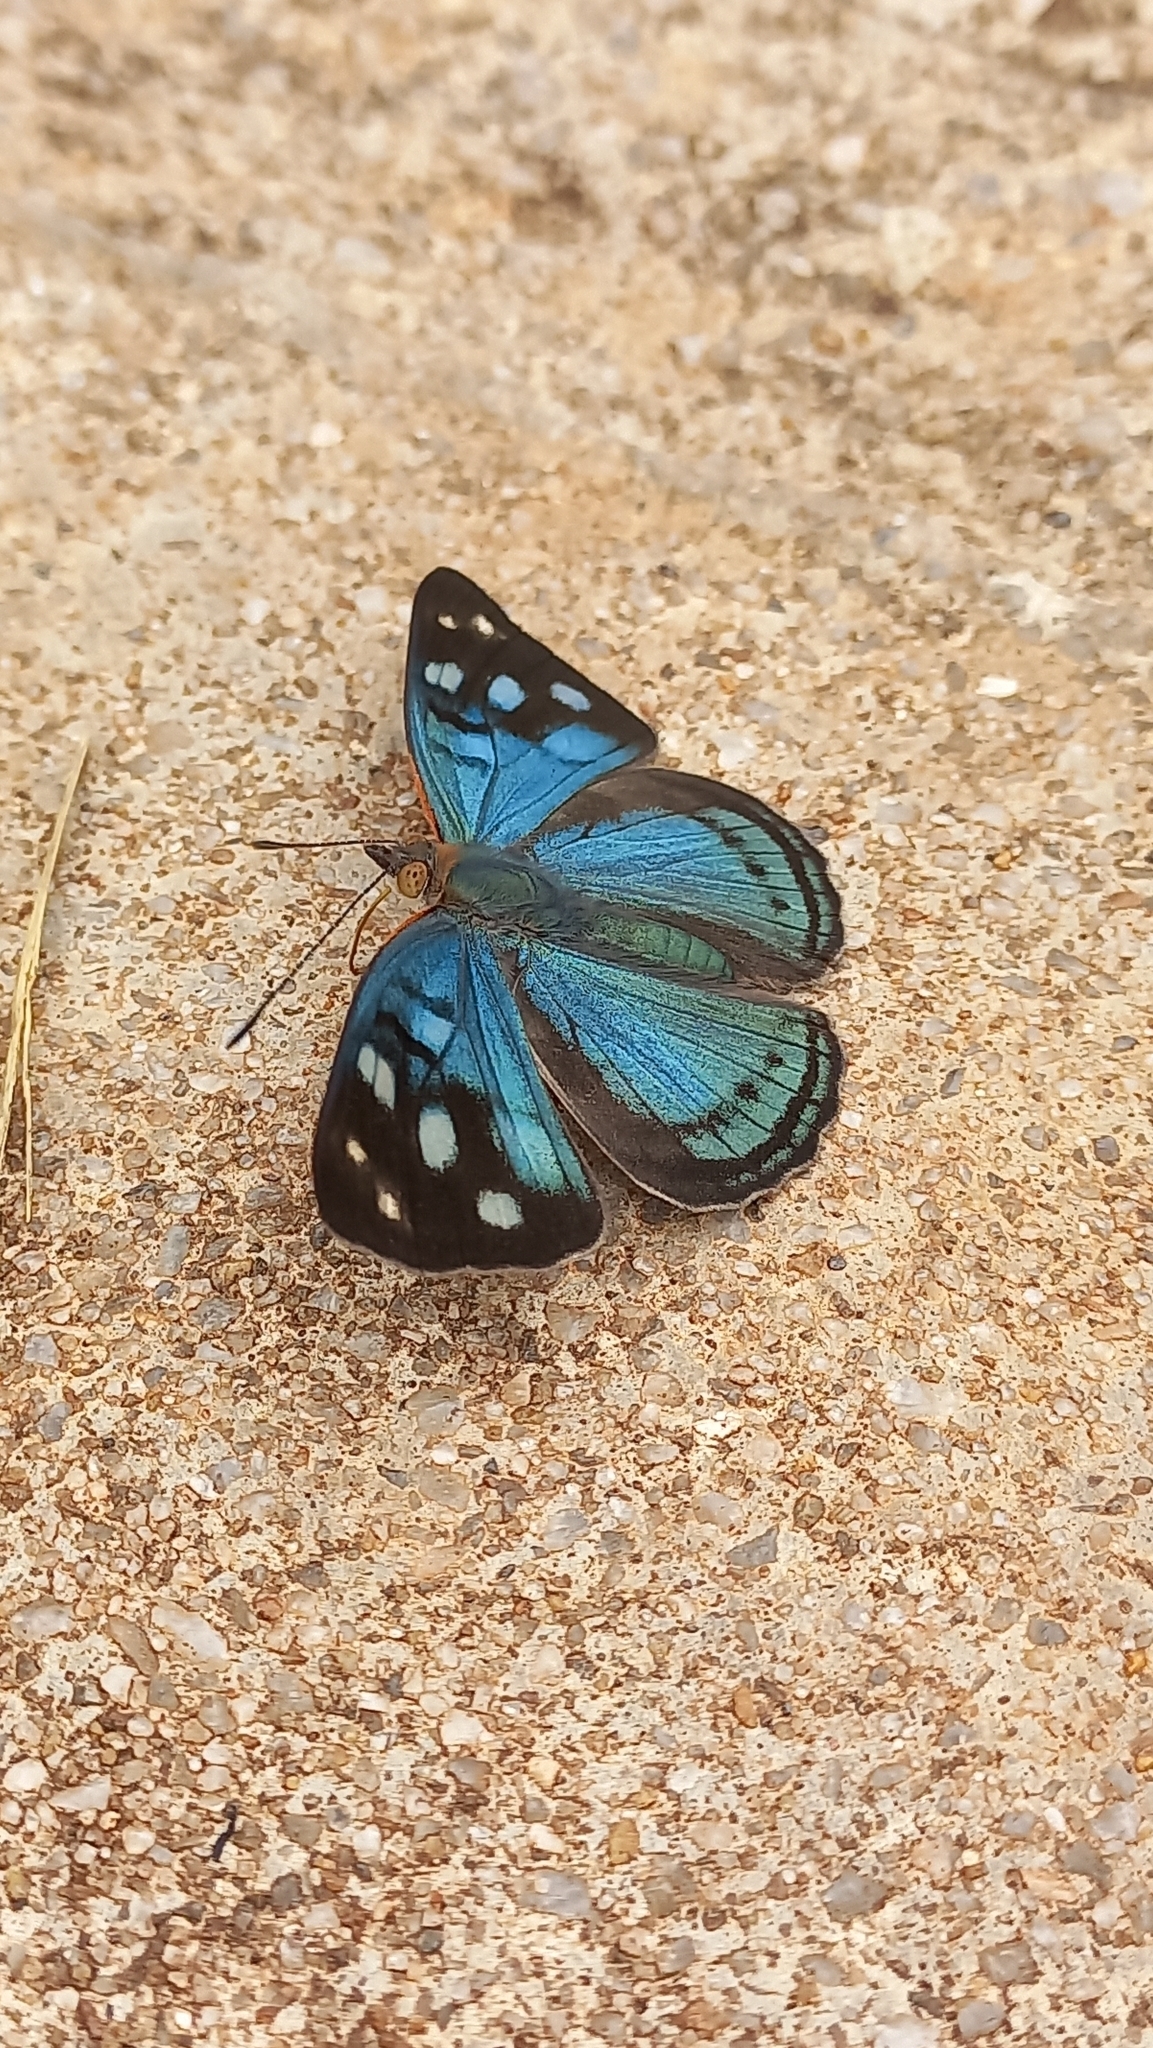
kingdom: Animalia
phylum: Arthropoda
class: Insecta
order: Lepidoptera
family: Nymphalidae
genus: Dynamine
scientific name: Dynamine tithia
